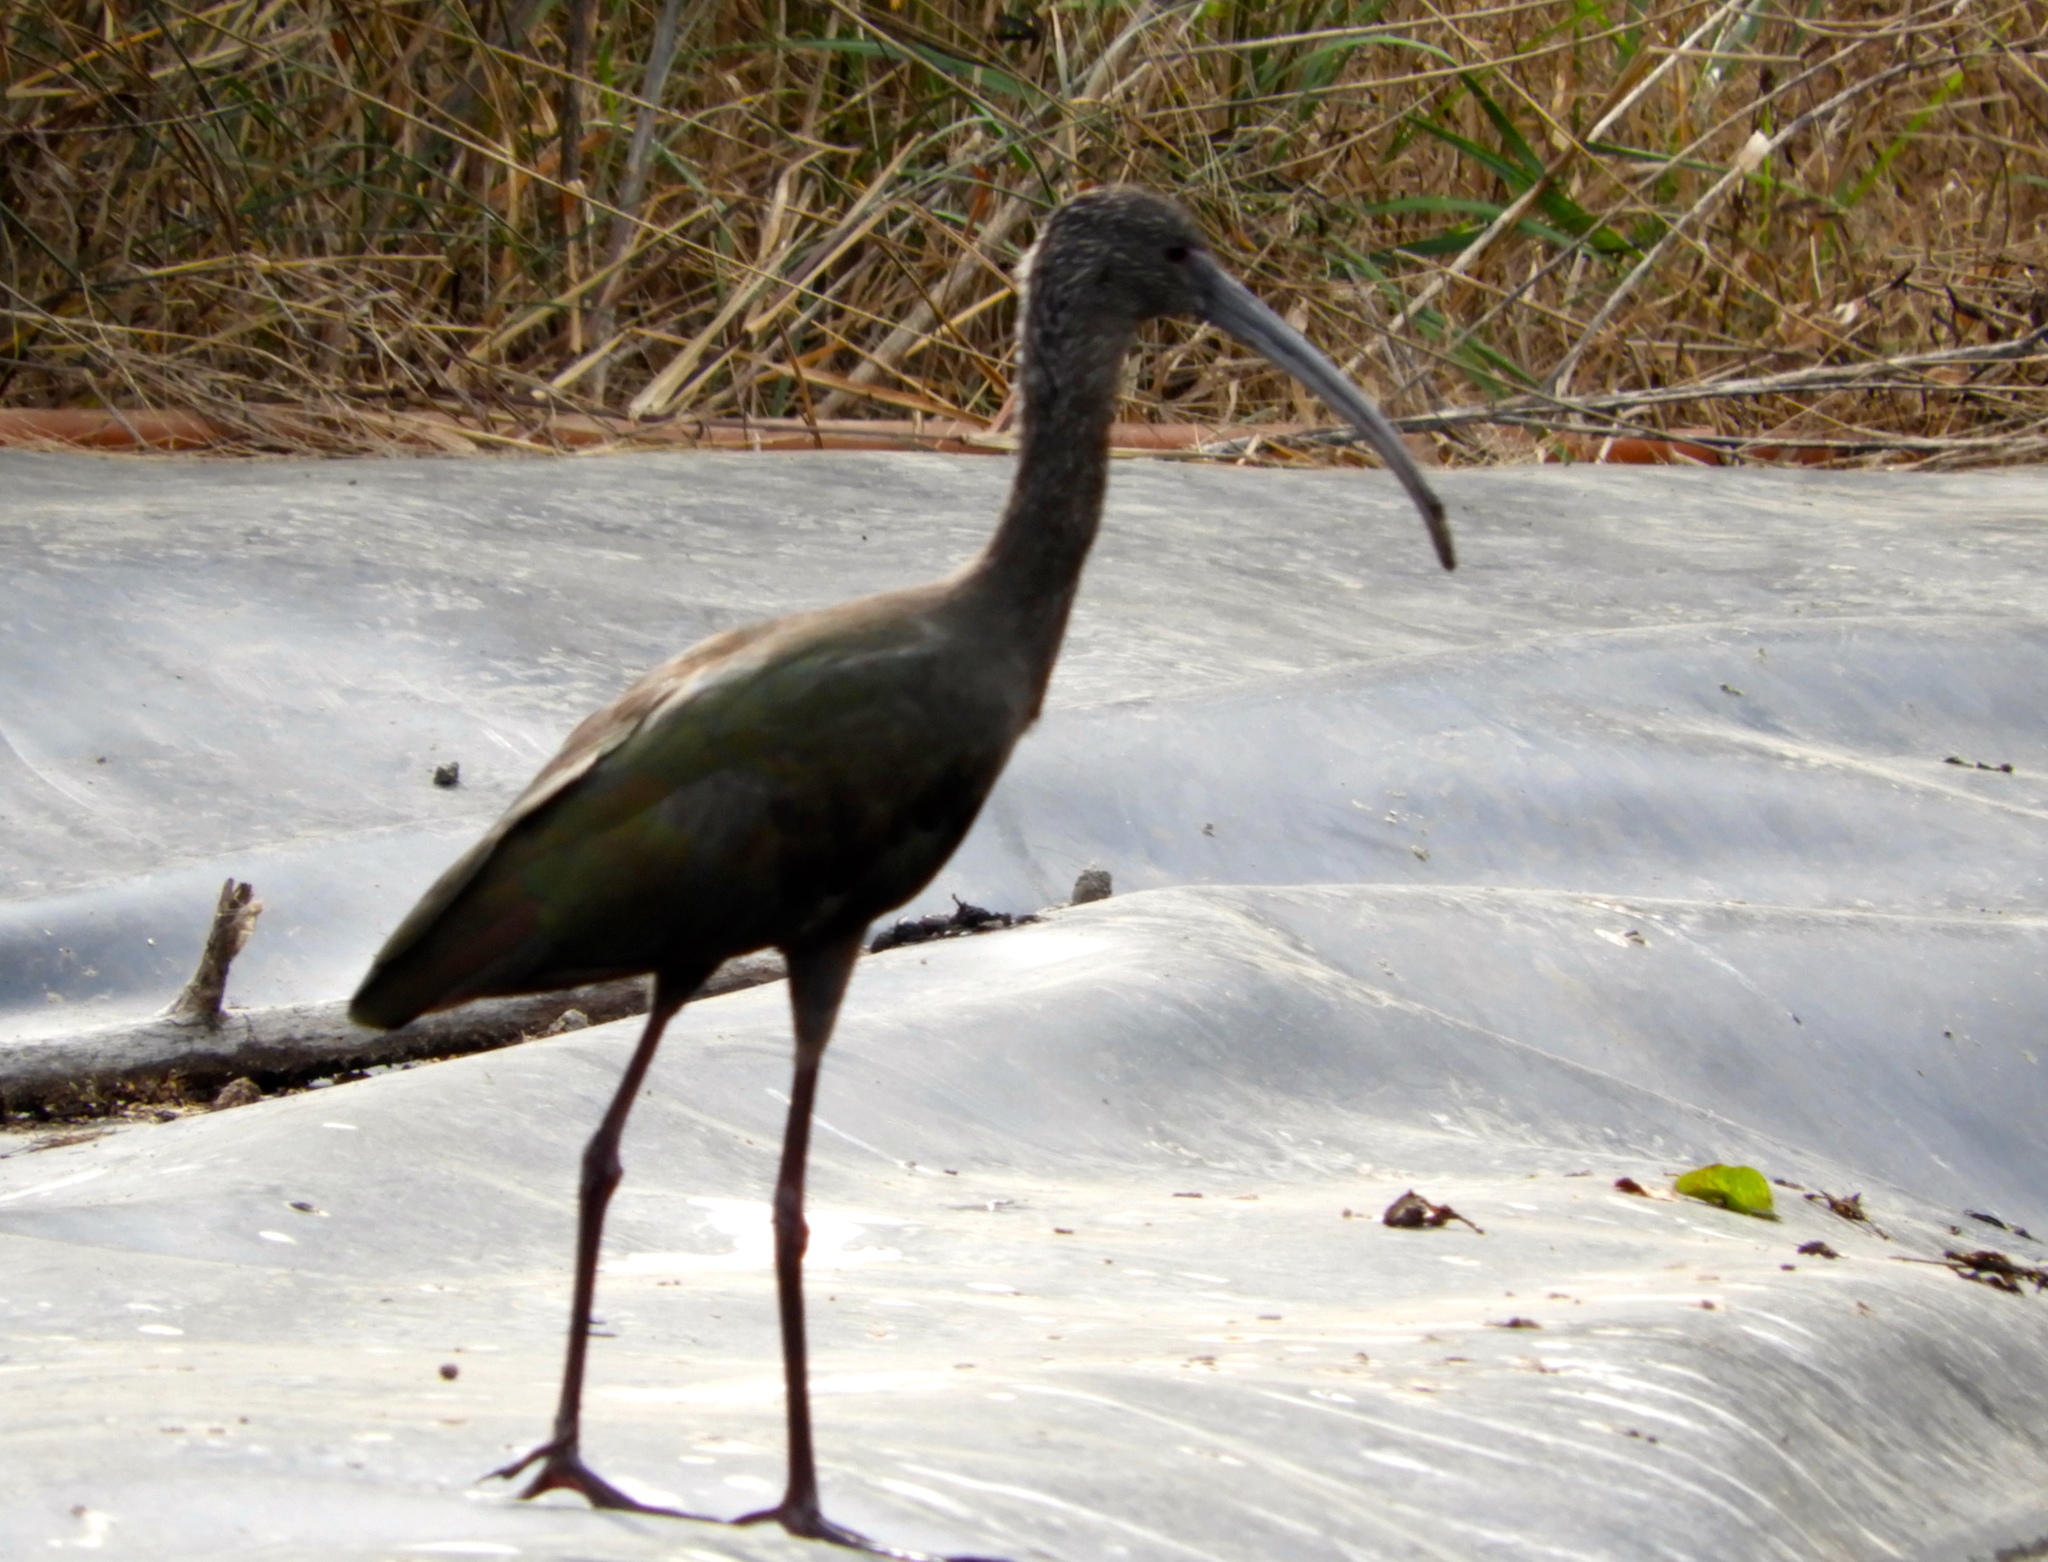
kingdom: Animalia
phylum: Chordata
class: Aves
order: Pelecaniformes
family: Threskiornithidae
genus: Plegadis
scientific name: Plegadis chihi
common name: White-faced ibis
